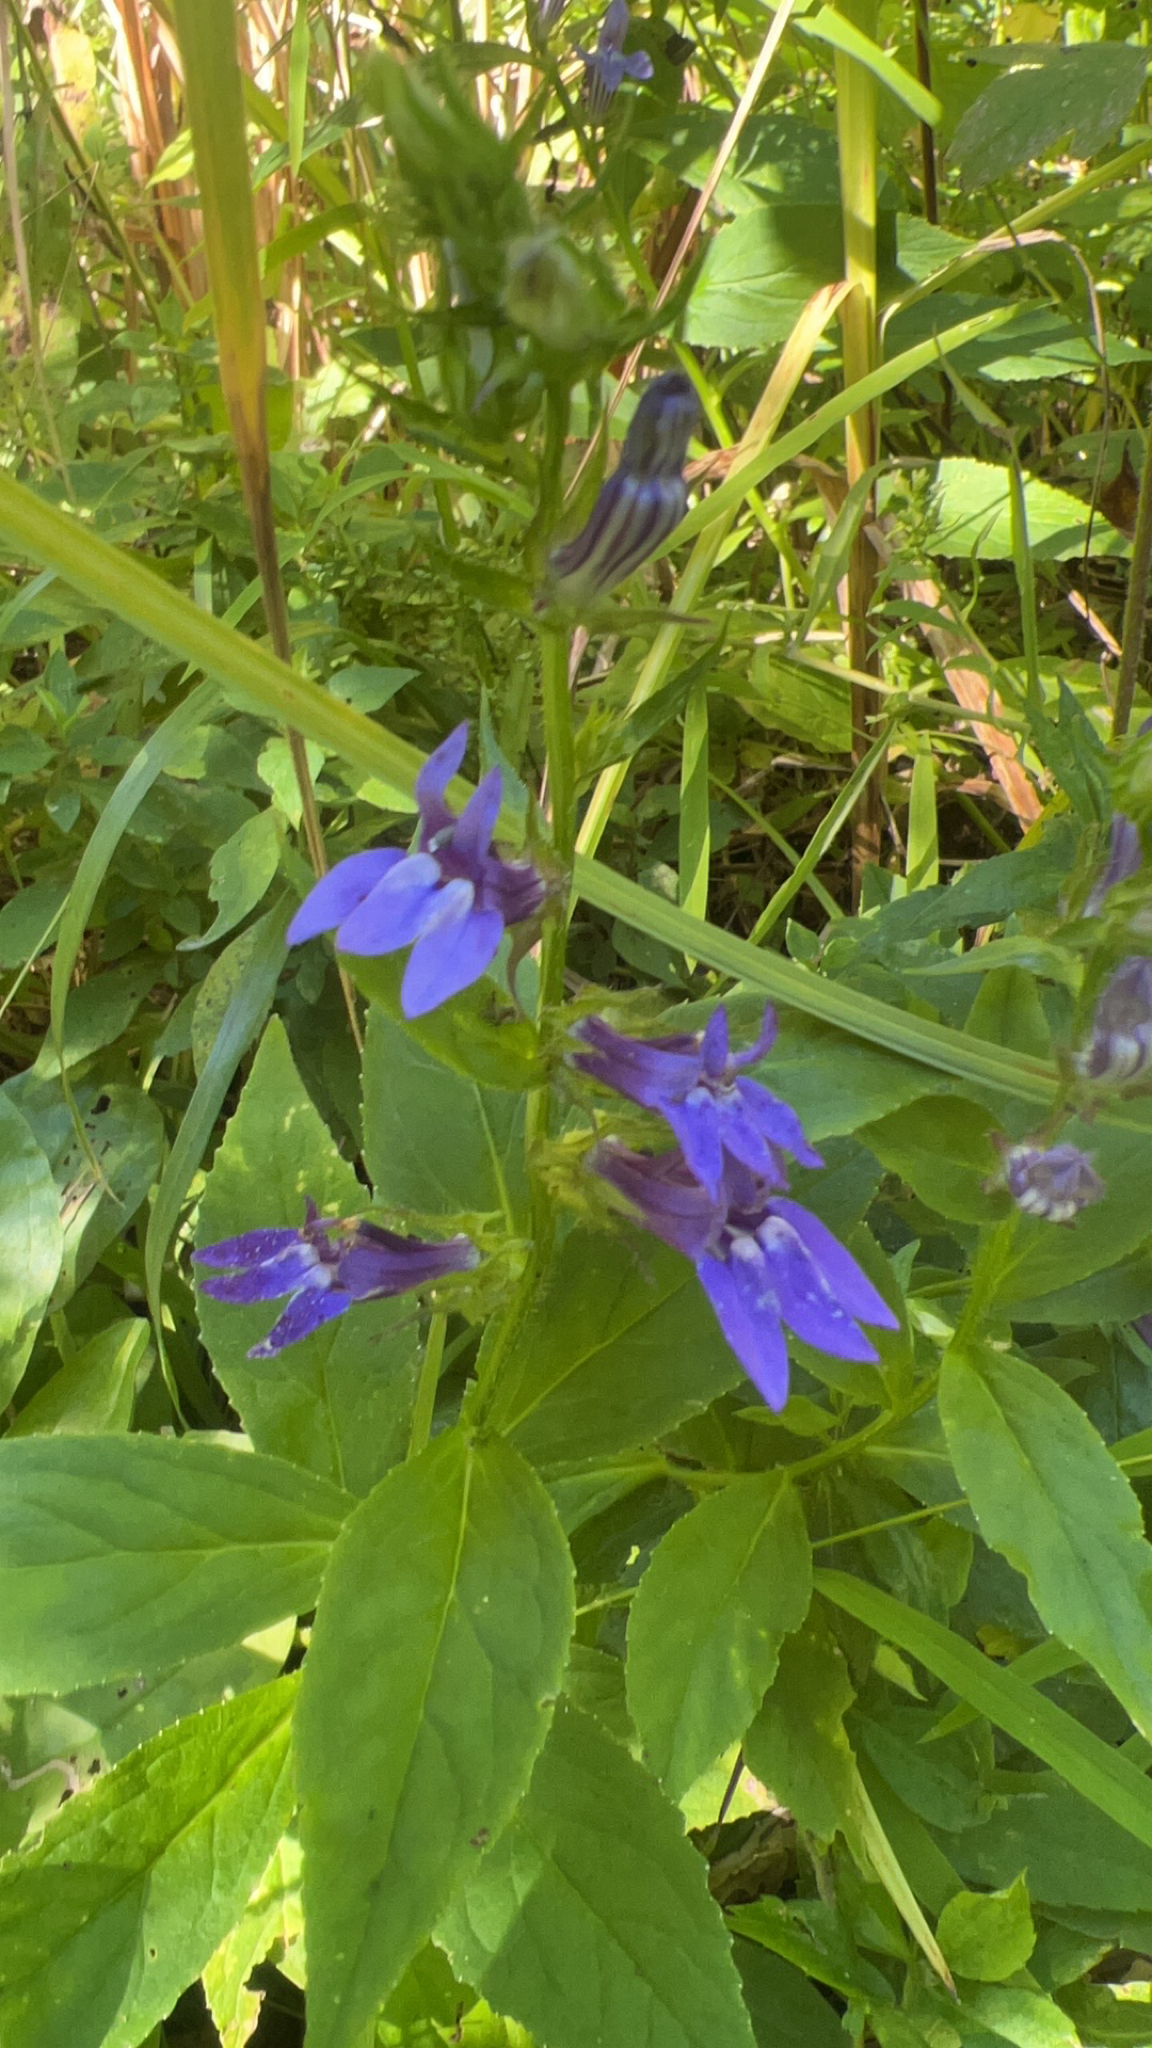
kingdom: Plantae
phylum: Tracheophyta
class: Magnoliopsida
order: Asterales
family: Campanulaceae
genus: Lobelia
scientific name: Lobelia siphilitica
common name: Great lobelia
